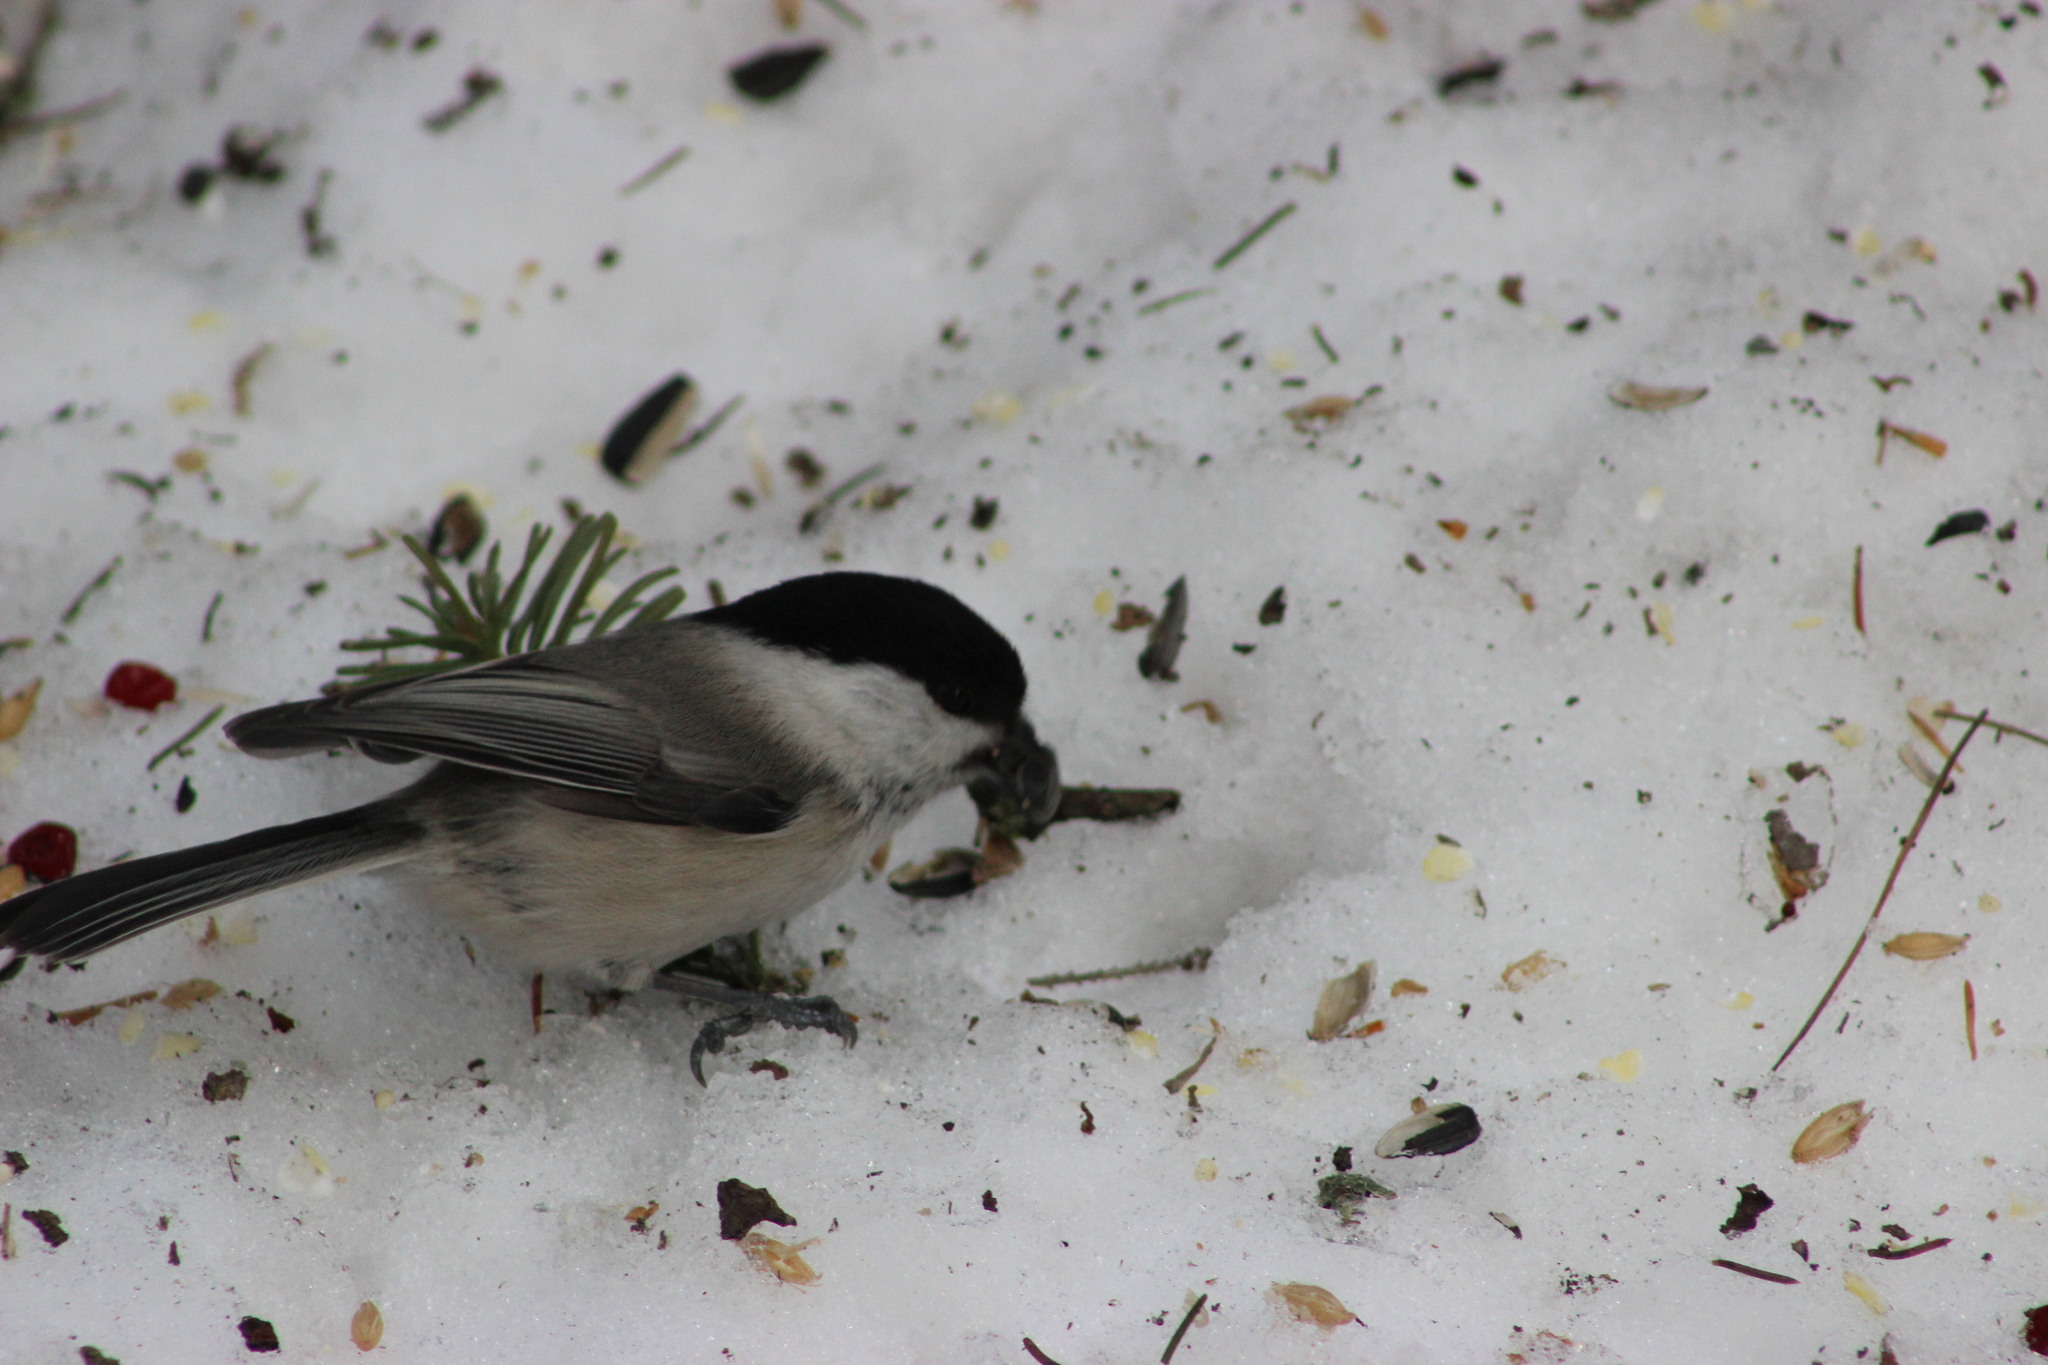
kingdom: Animalia
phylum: Chordata
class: Aves
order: Passeriformes
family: Paridae
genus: Poecile
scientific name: Poecile montanus
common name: Willow tit
